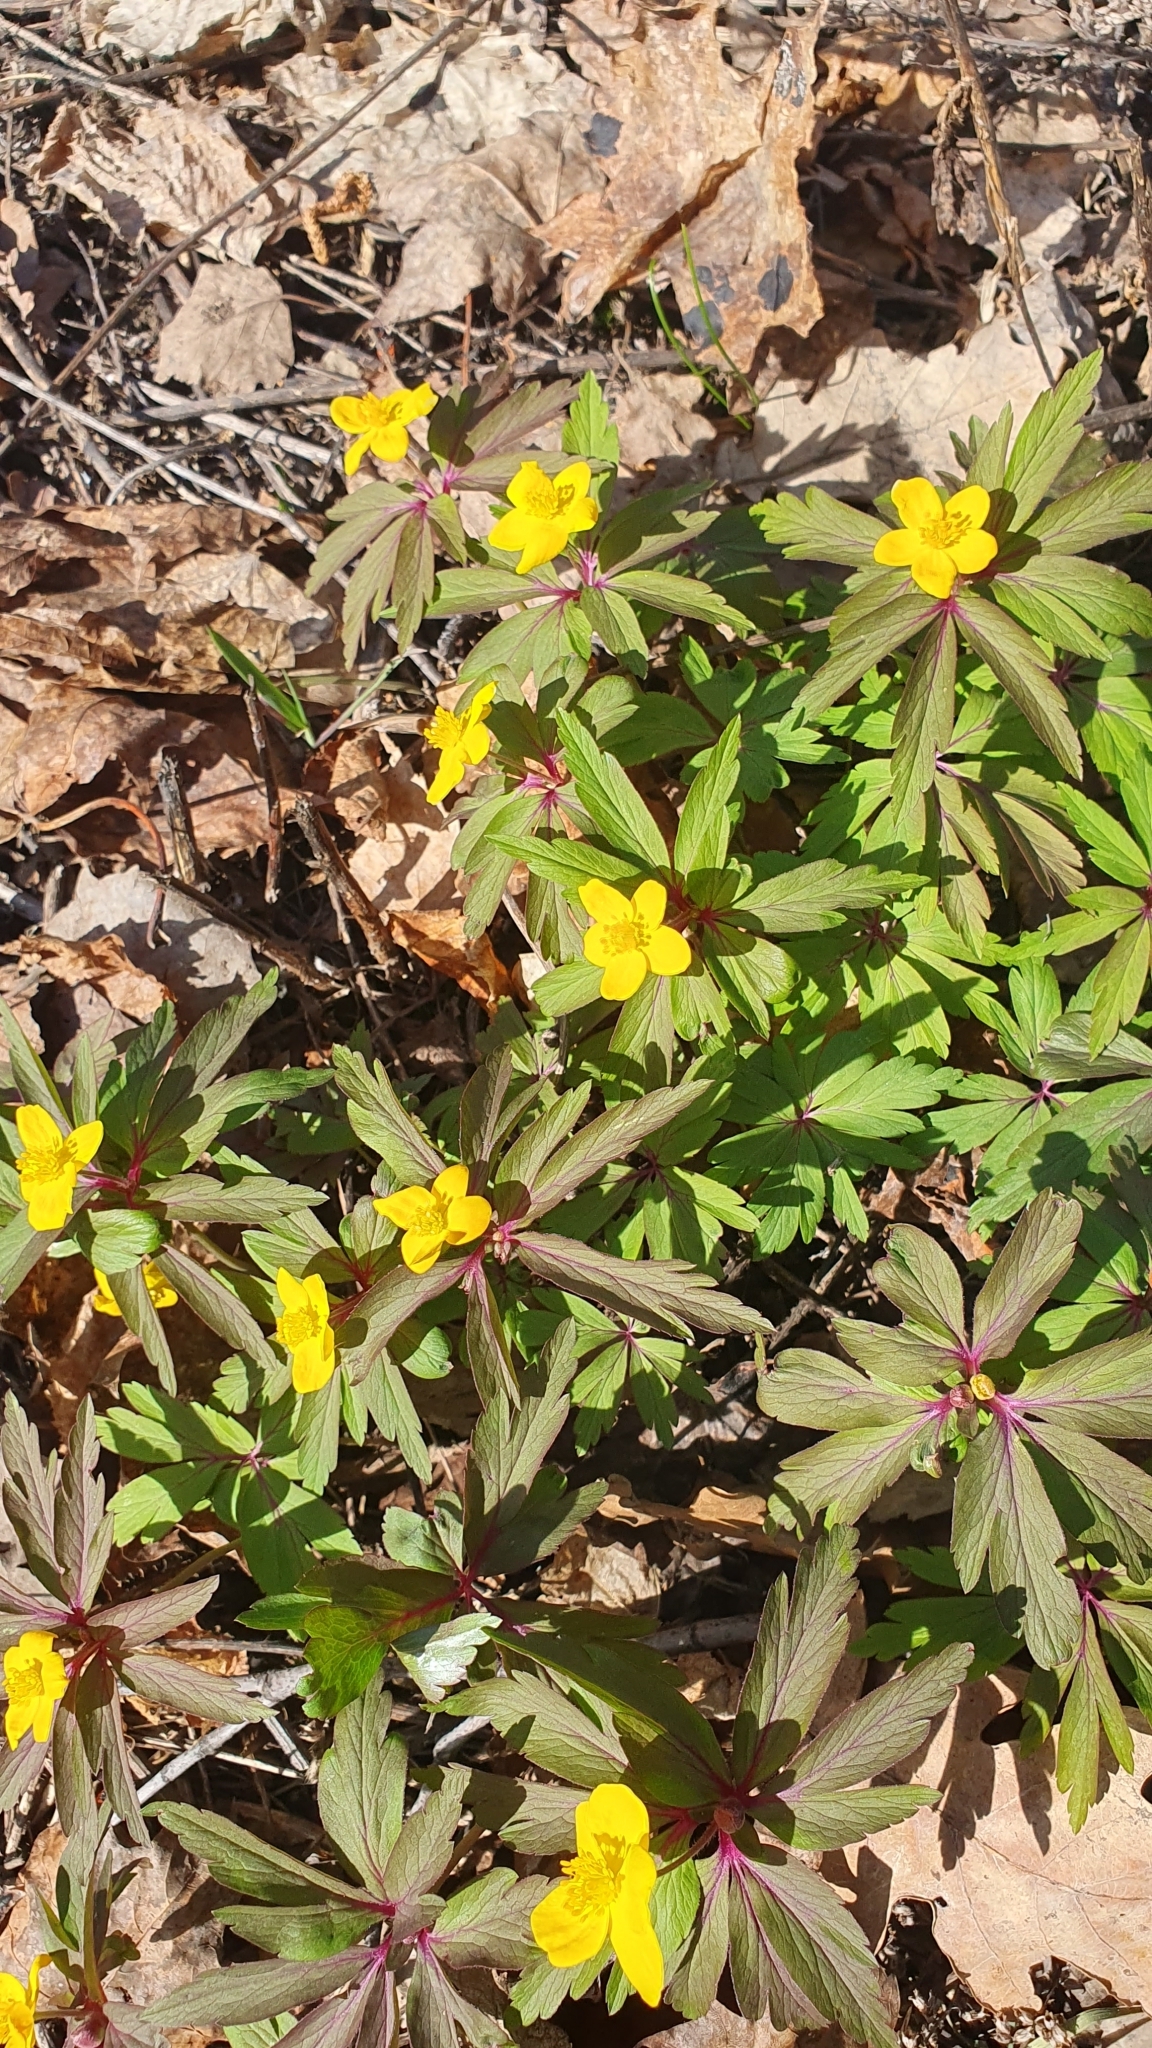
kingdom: Plantae
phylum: Tracheophyta
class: Magnoliopsida
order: Ranunculales
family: Ranunculaceae
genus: Anemone
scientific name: Anemone ranunculoides
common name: Yellow anemone
